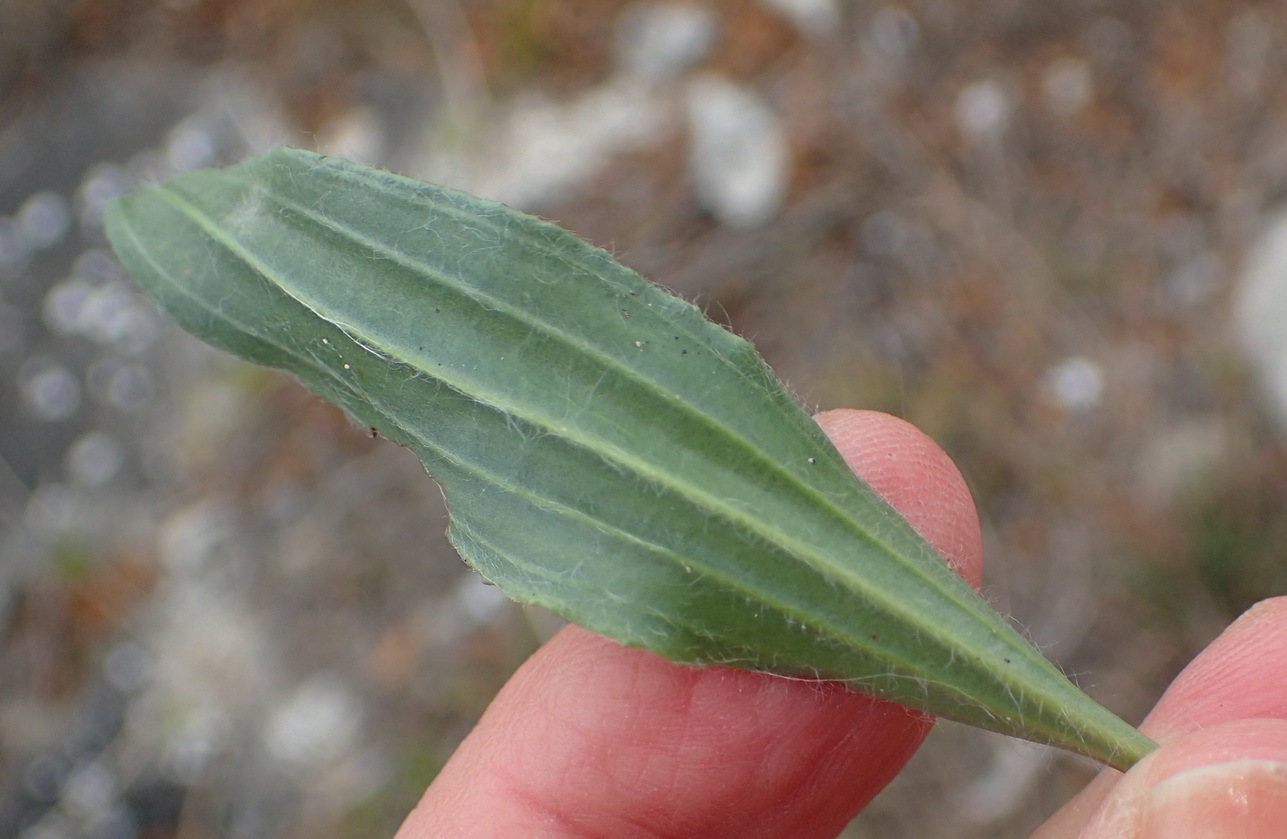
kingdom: Plantae
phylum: Tracheophyta
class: Magnoliopsida
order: Lamiales
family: Plantaginaceae
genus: Plantago
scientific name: Plantago lanceolata
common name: Ribwort plantain
